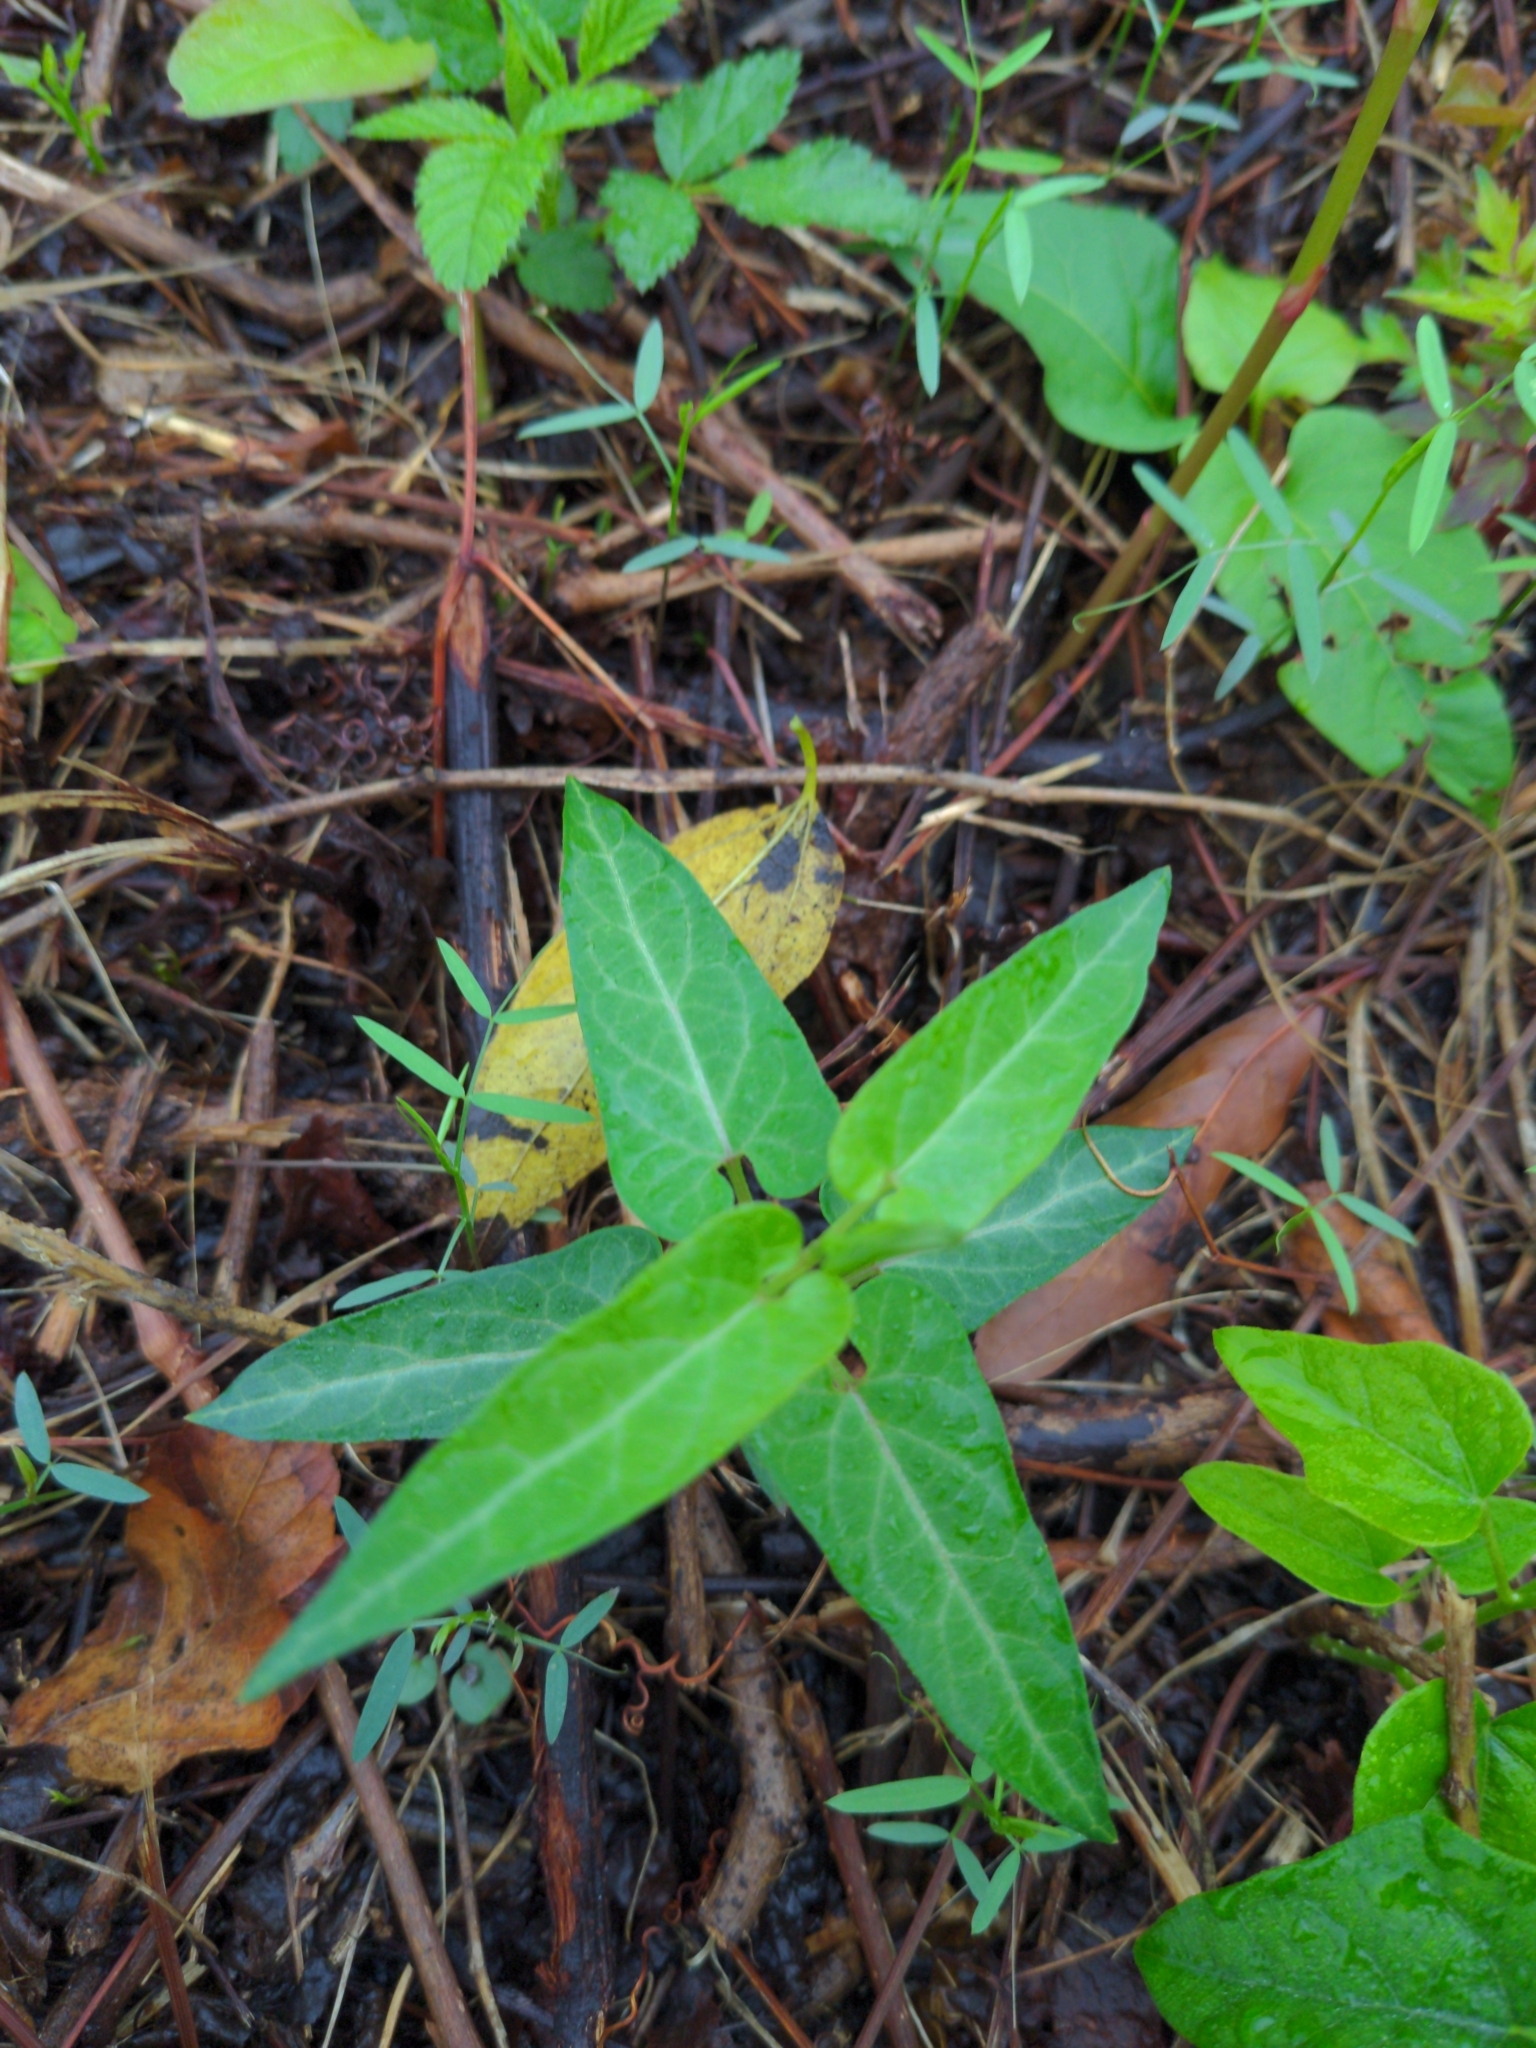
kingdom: Plantae
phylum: Tracheophyta
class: Magnoliopsida
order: Gentianales
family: Apocynaceae
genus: Cynanchum
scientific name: Cynanchum laeve
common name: Sandvine
